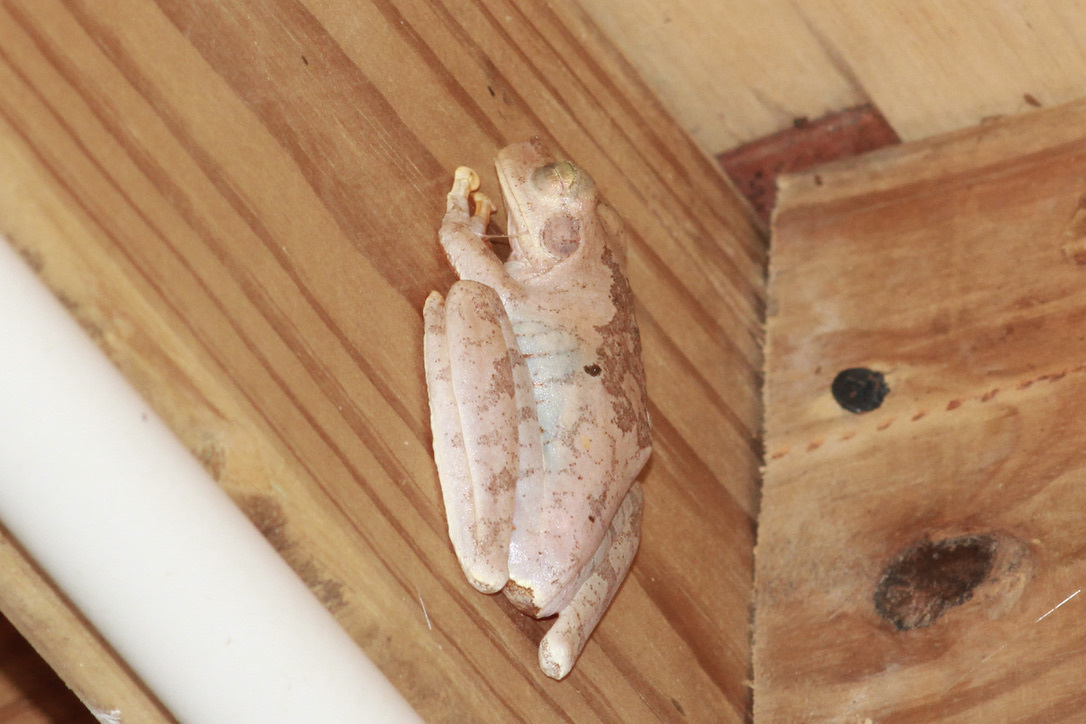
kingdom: Animalia
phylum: Chordata
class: Amphibia
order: Anura
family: Hylidae
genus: Boana
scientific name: Boana platanera
